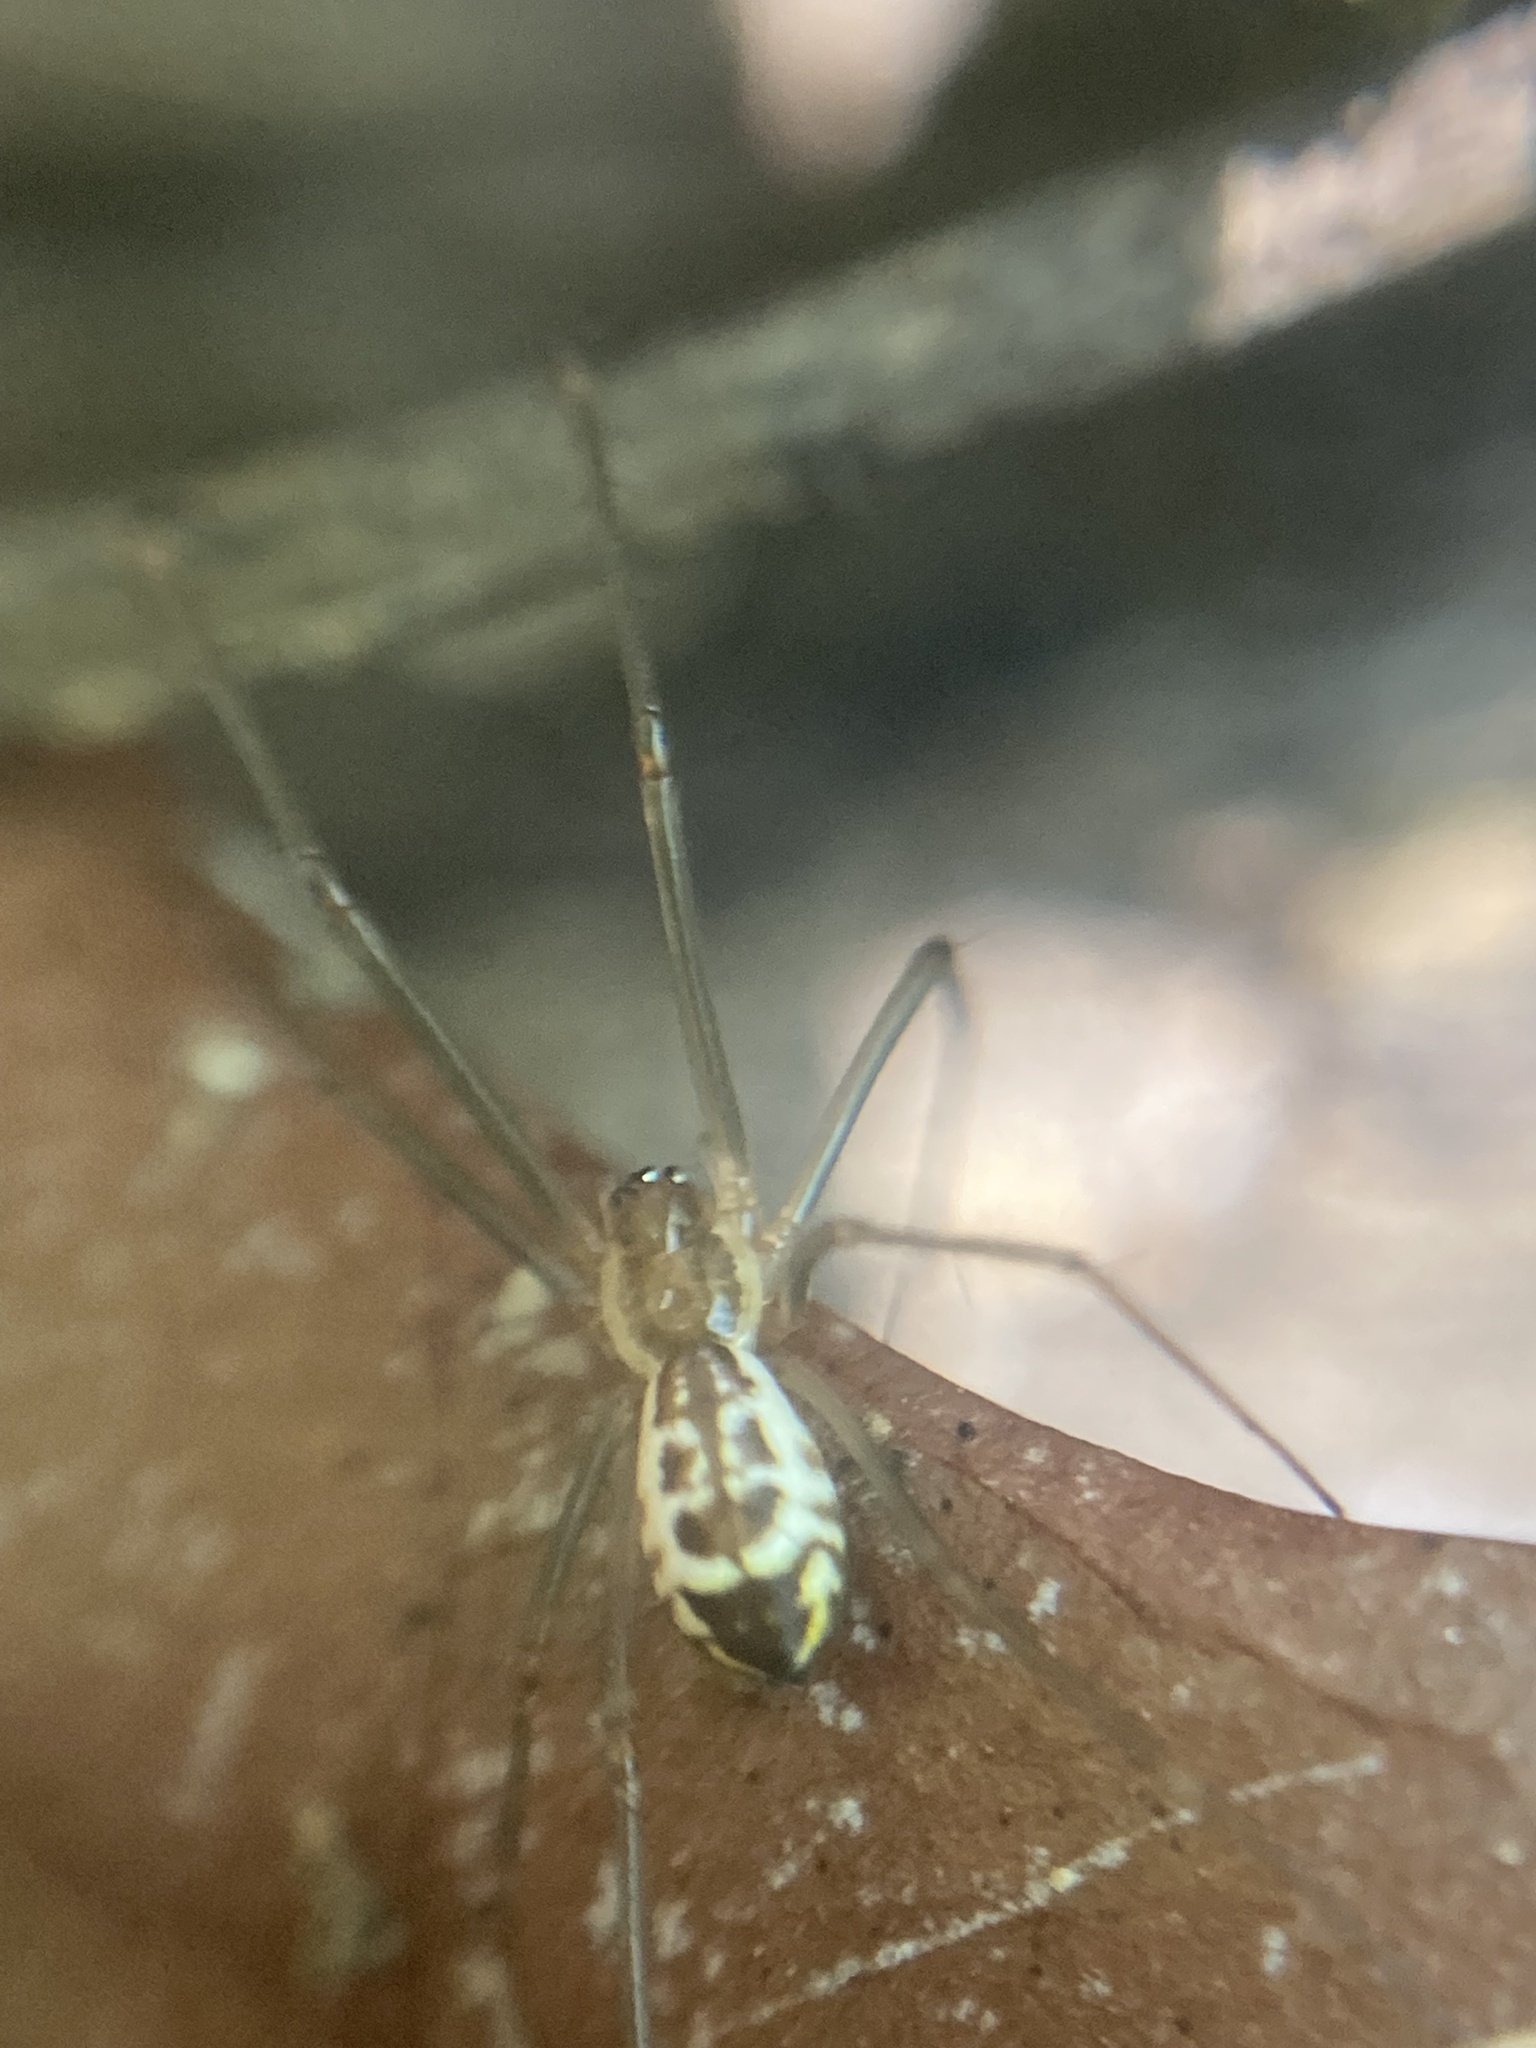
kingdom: Animalia
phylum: Arthropoda
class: Arachnida
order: Araneae
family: Linyphiidae
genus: Neriene
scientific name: Neriene radiata
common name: Filmy dome spider
